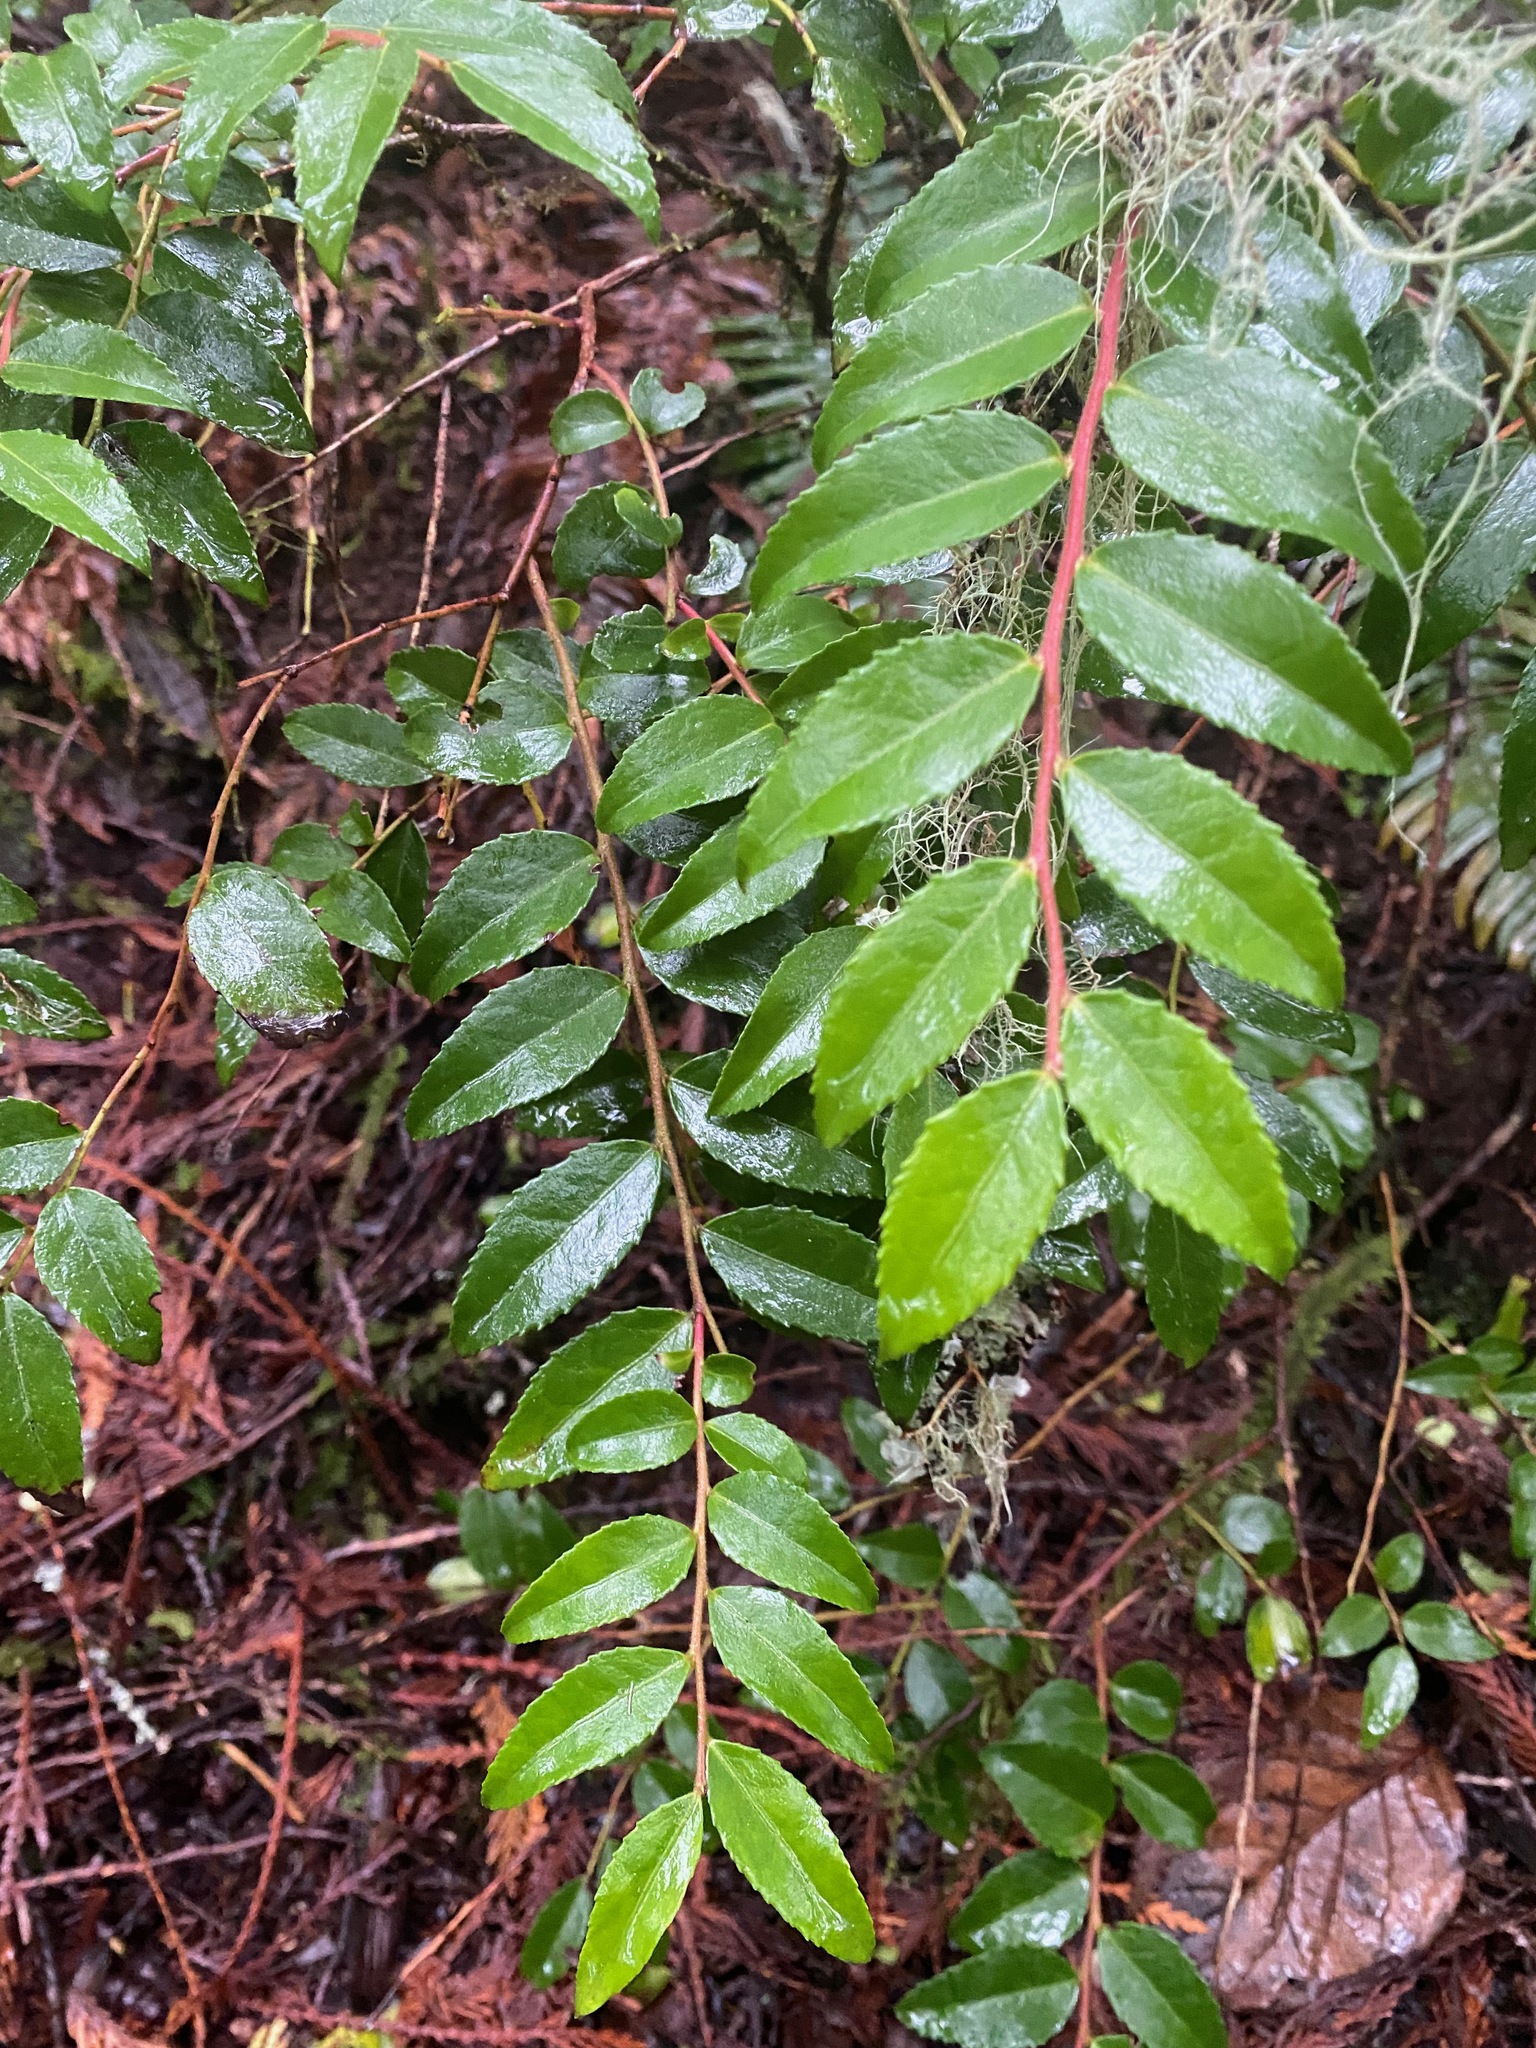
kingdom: Plantae
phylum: Tracheophyta
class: Magnoliopsida
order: Ericales
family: Ericaceae
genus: Vaccinium
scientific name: Vaccinium ovatum
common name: California-huckleberry
